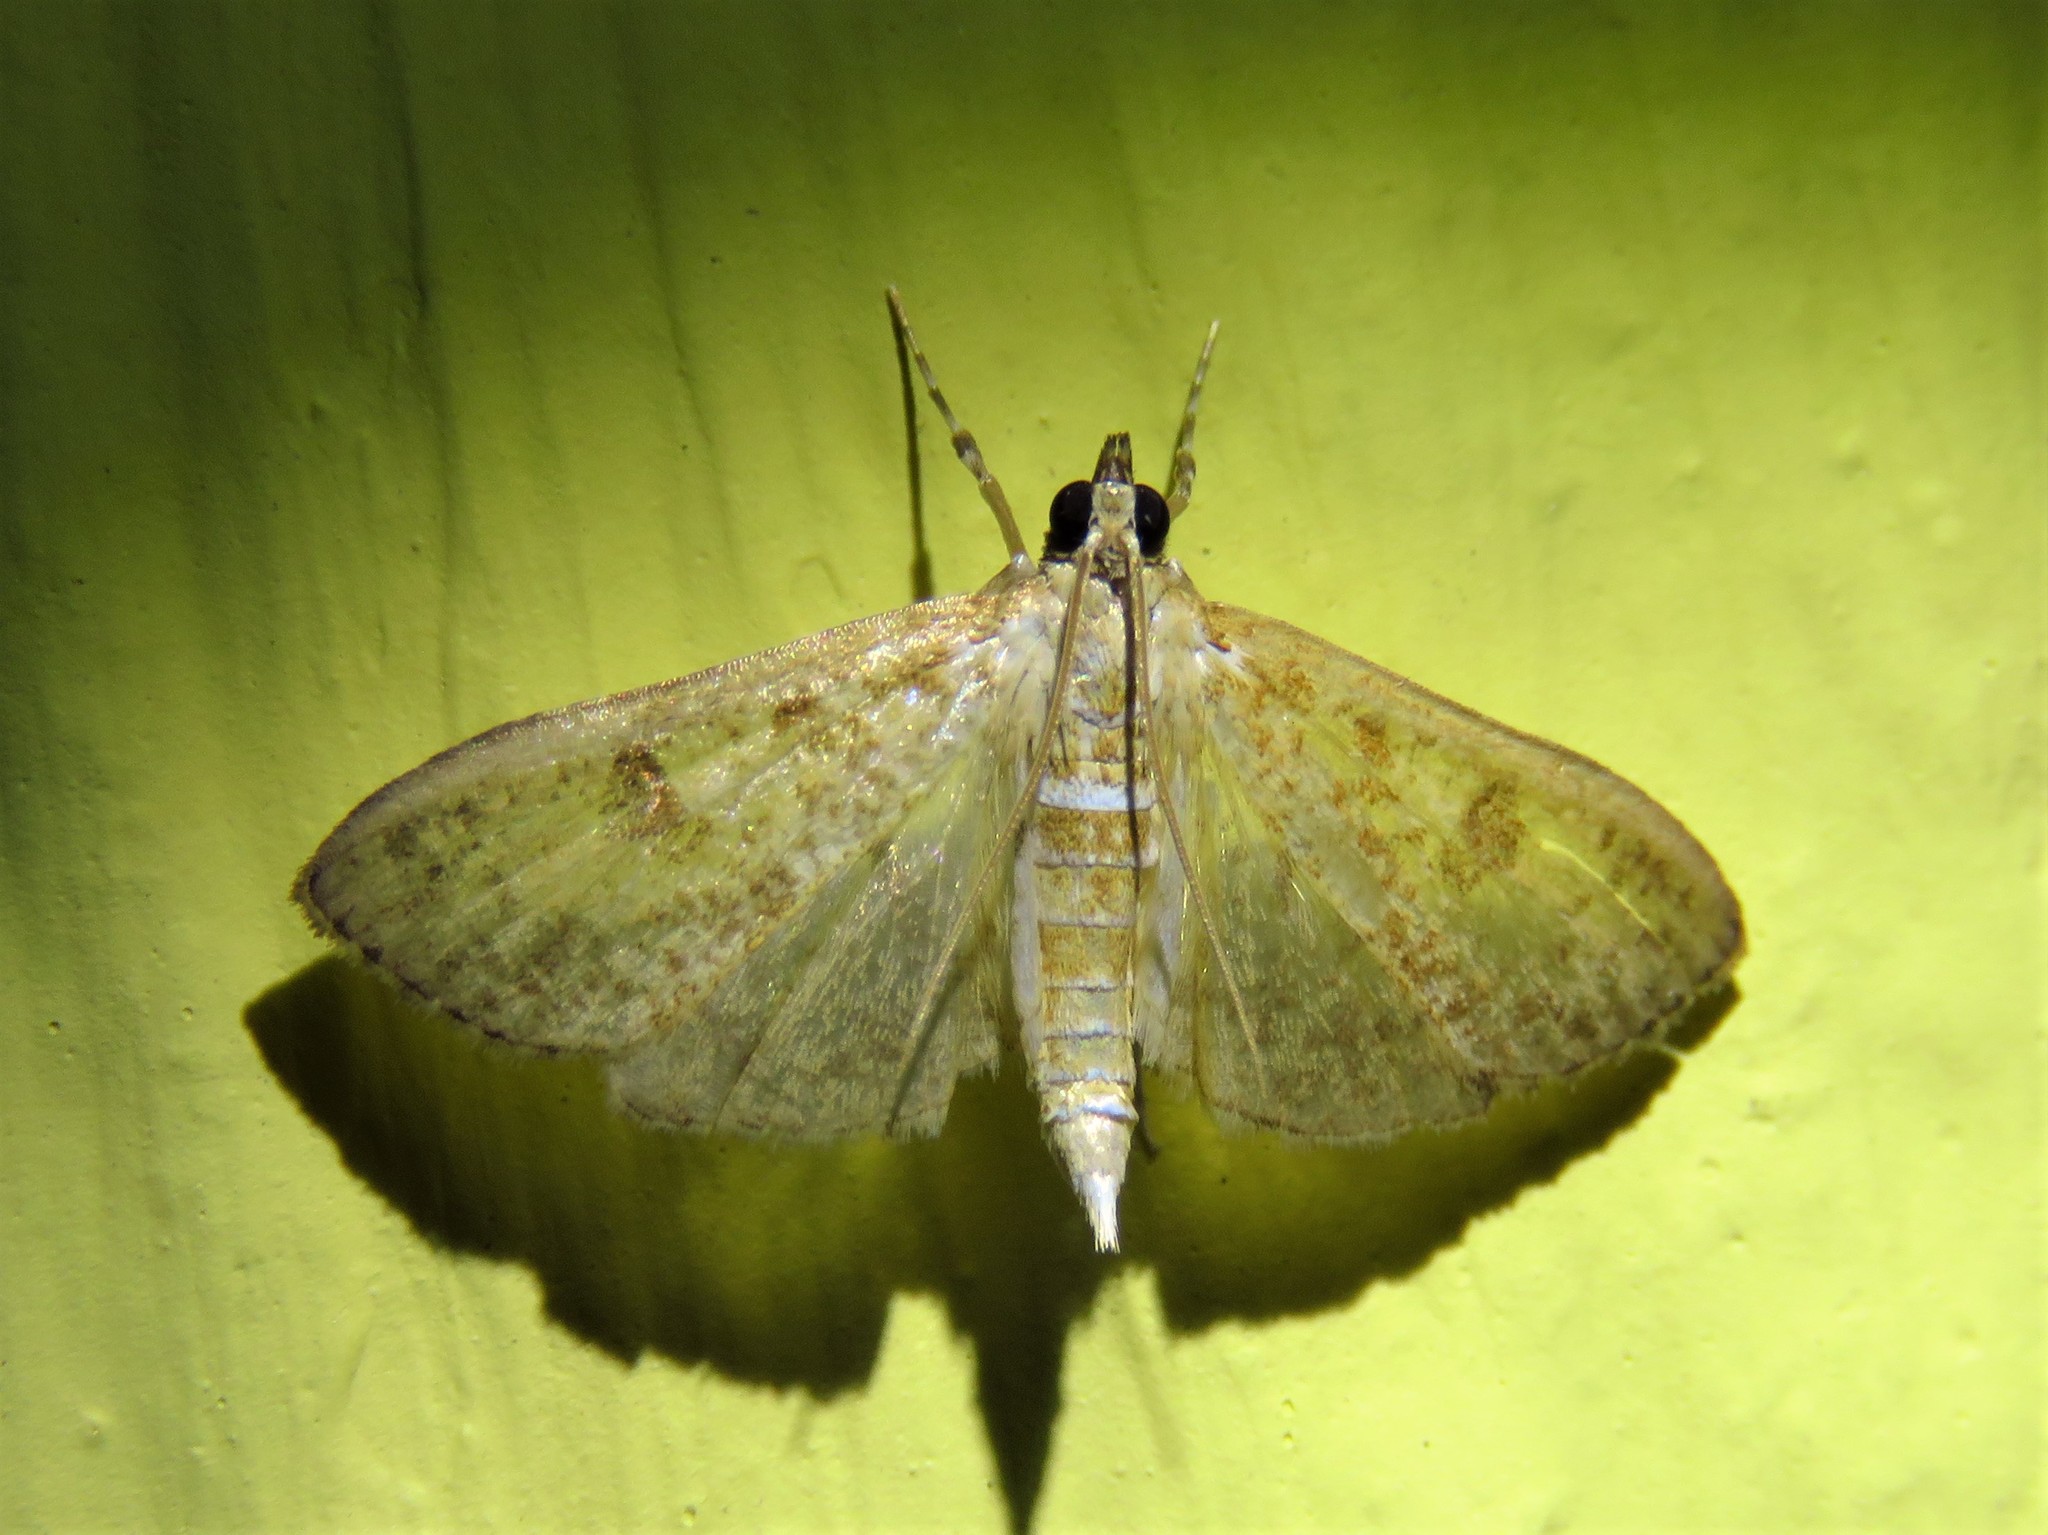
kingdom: Animalia
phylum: Arthropoda
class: Insecta
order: Lepidoptera
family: Crambidae
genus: Palpita
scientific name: Palpita magniferalis
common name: Splendid palpita moth
